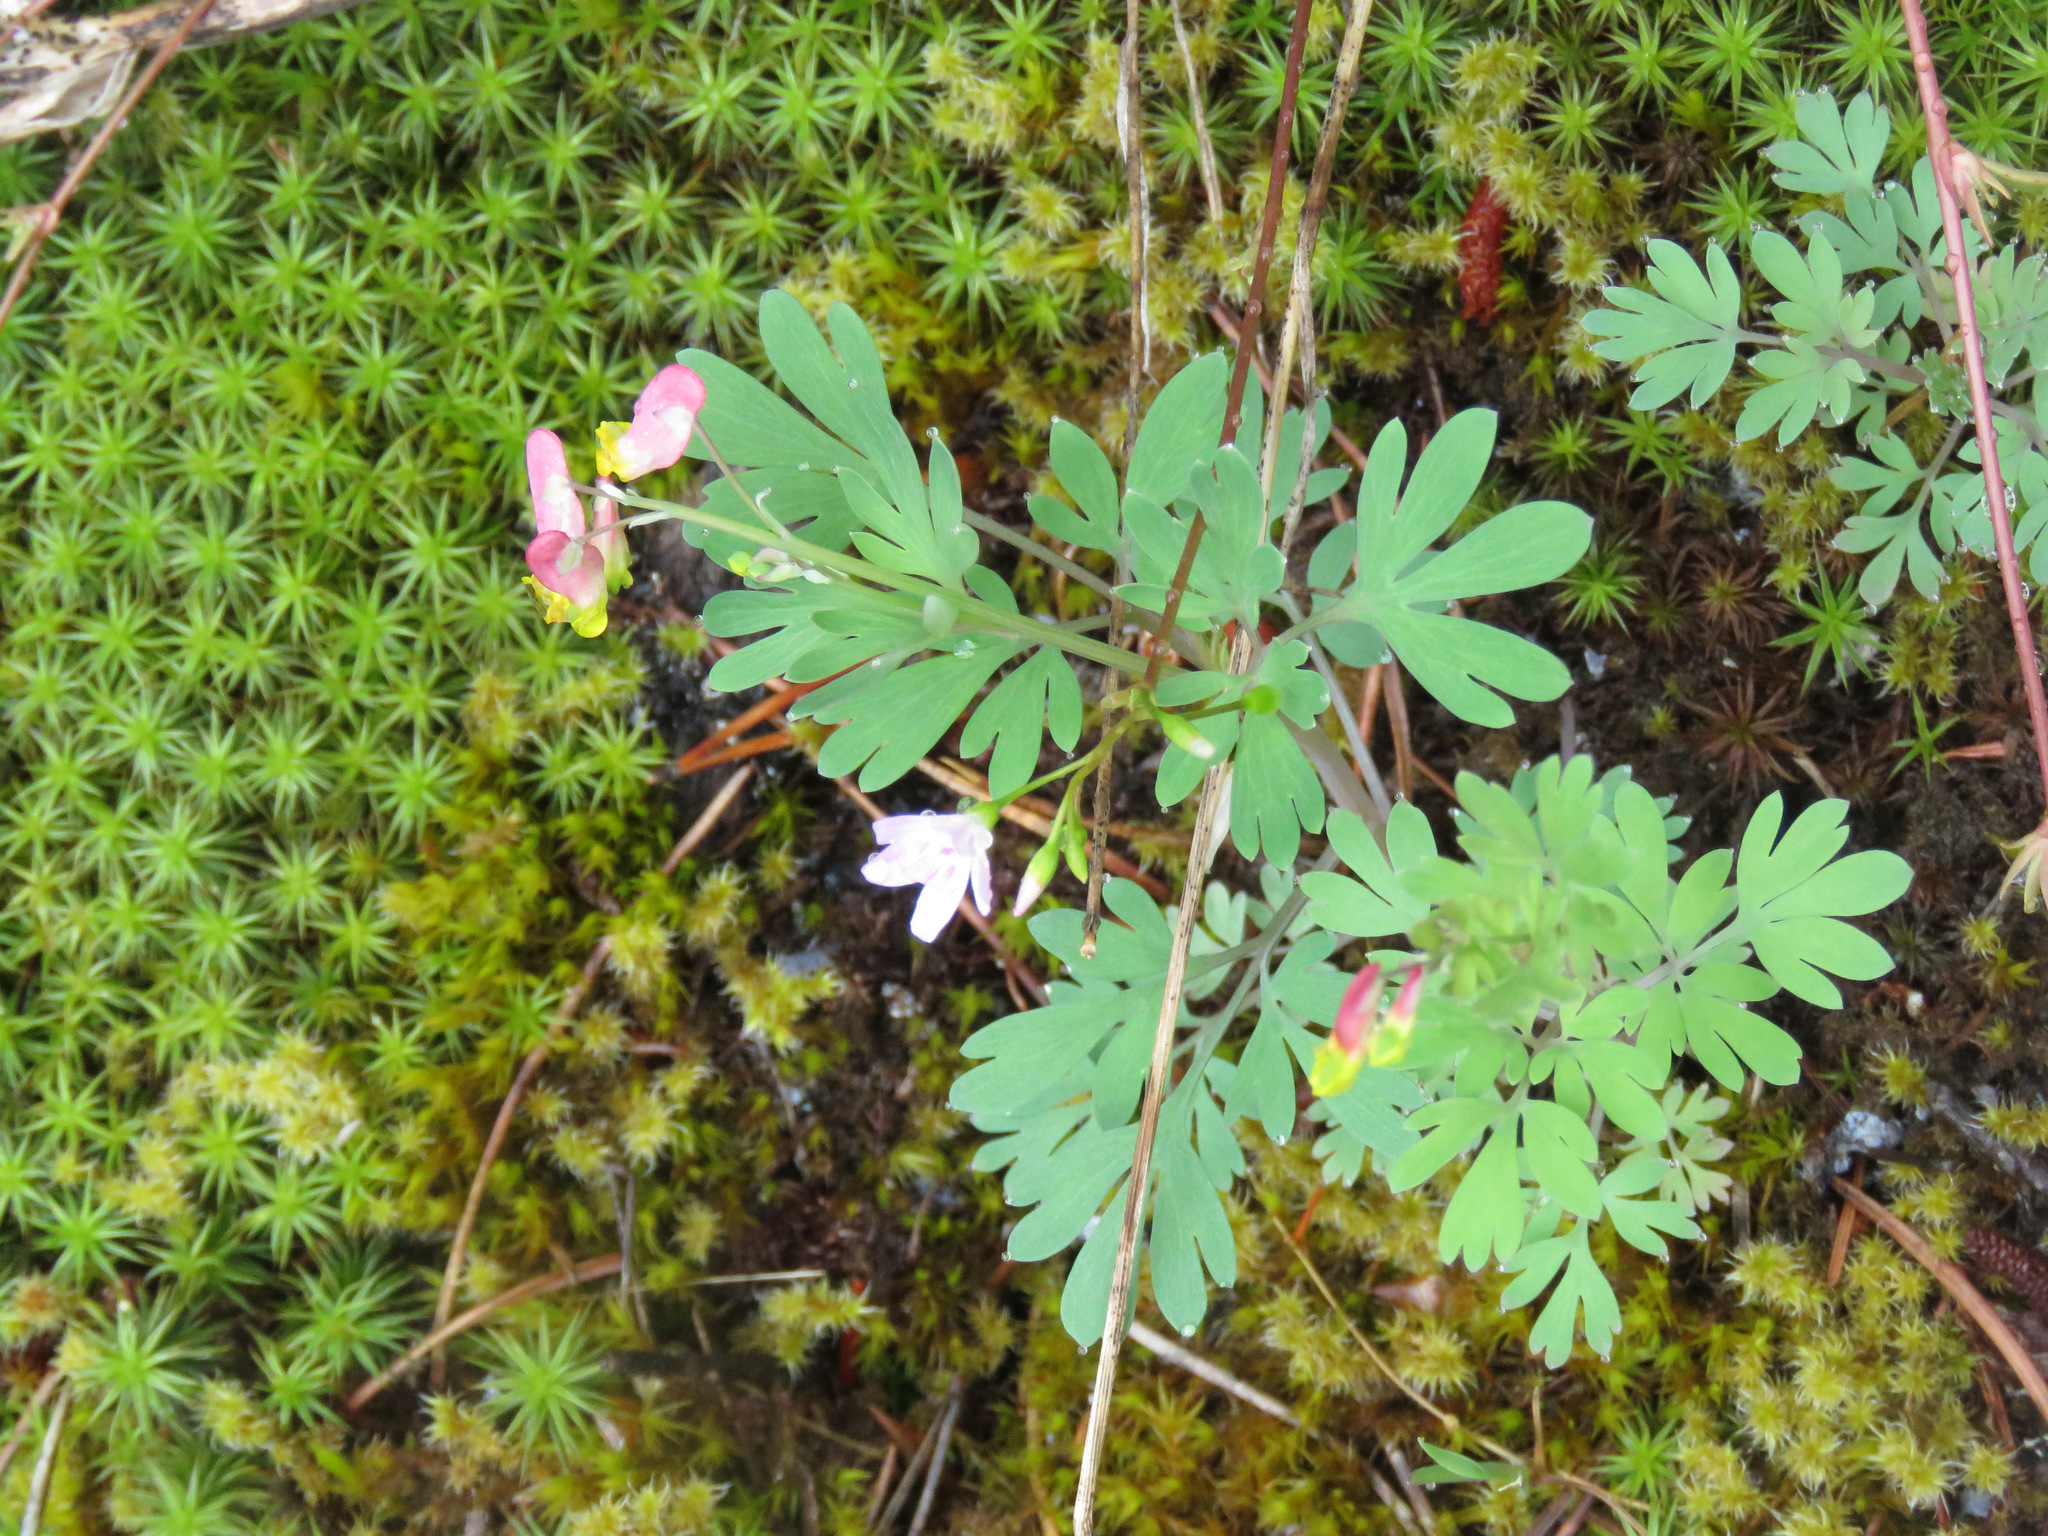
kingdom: Plantae
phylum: Tracheophyta
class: Magnoliopsida
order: Ranunculales
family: Papaveraceae
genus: Capnoides
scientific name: Capnoides sempervirens
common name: Rock harlequin
